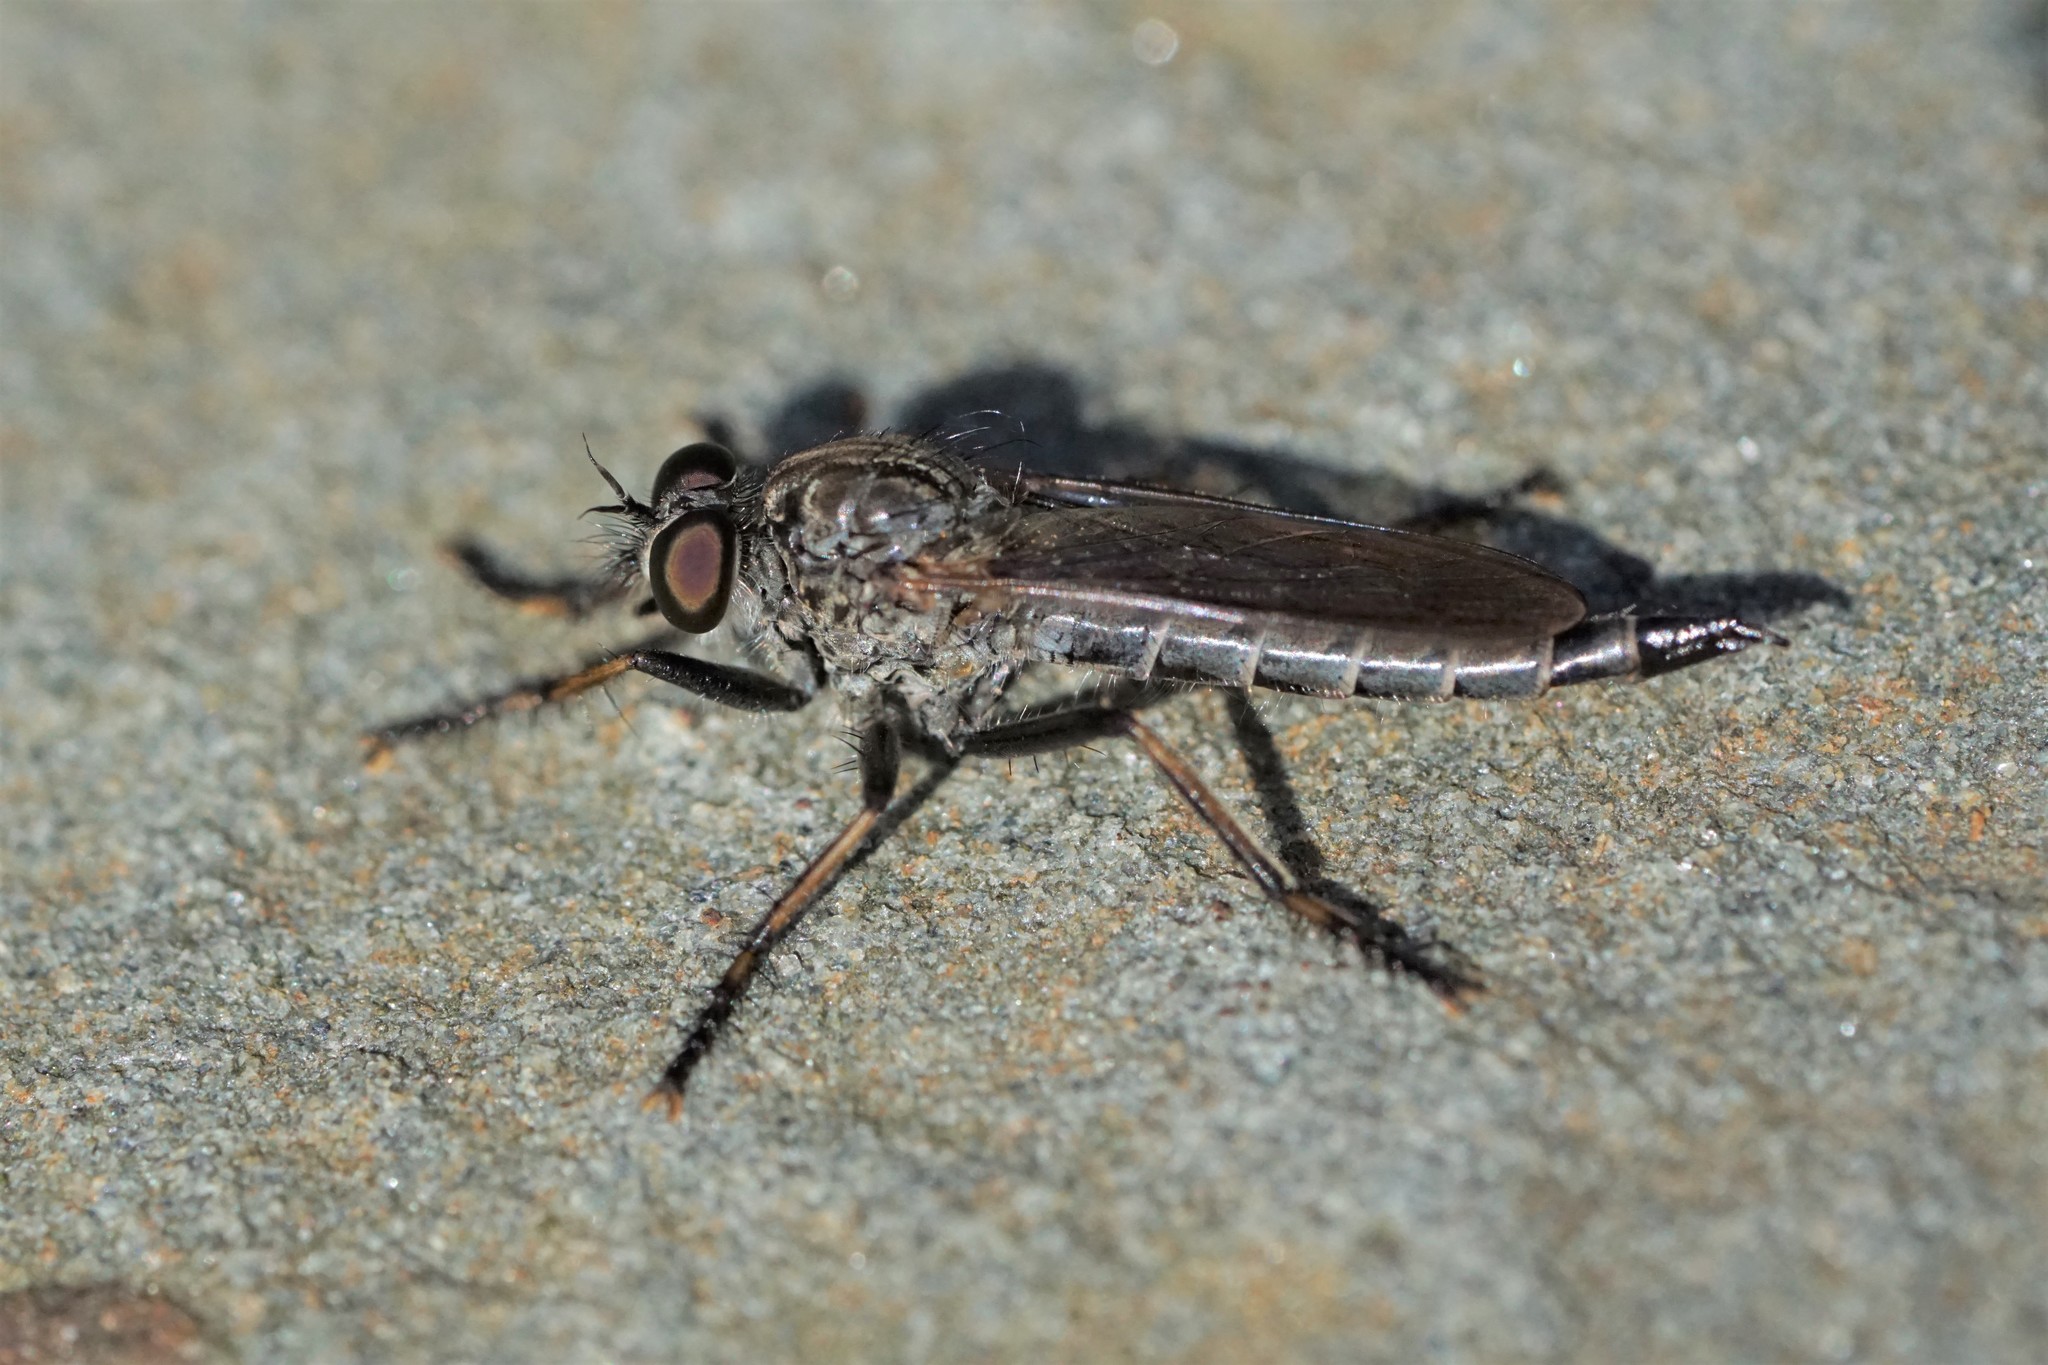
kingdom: Animalia
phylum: Arthropoda
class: Insecta
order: Diptera
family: Asilidae
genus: Machimus
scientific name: Machimus sadyates
